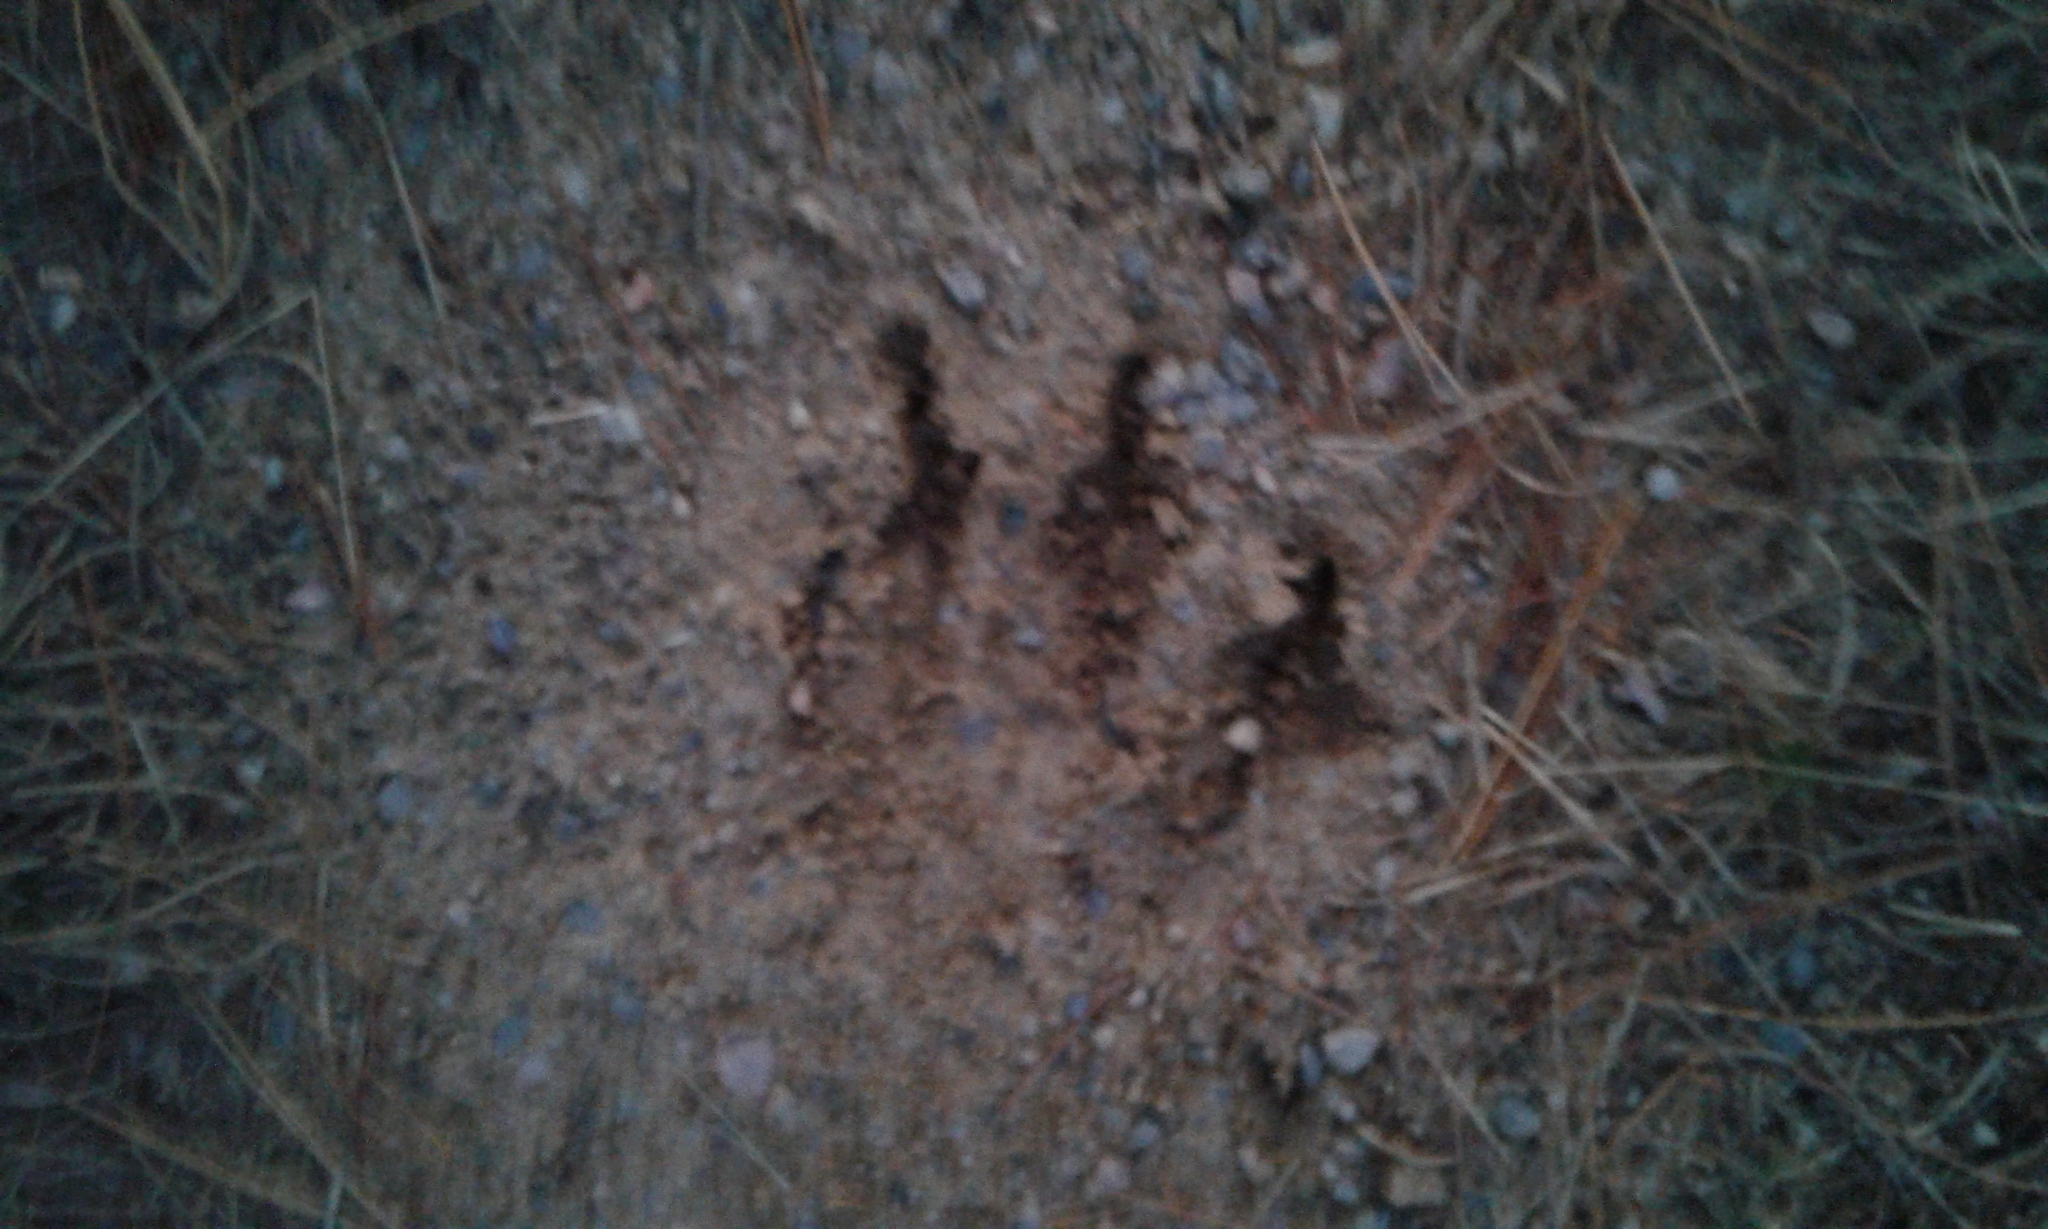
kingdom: Animalia
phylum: Chordata
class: Mammalia
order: Carnivora
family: Canidae
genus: Canis
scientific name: Canis lycaon
